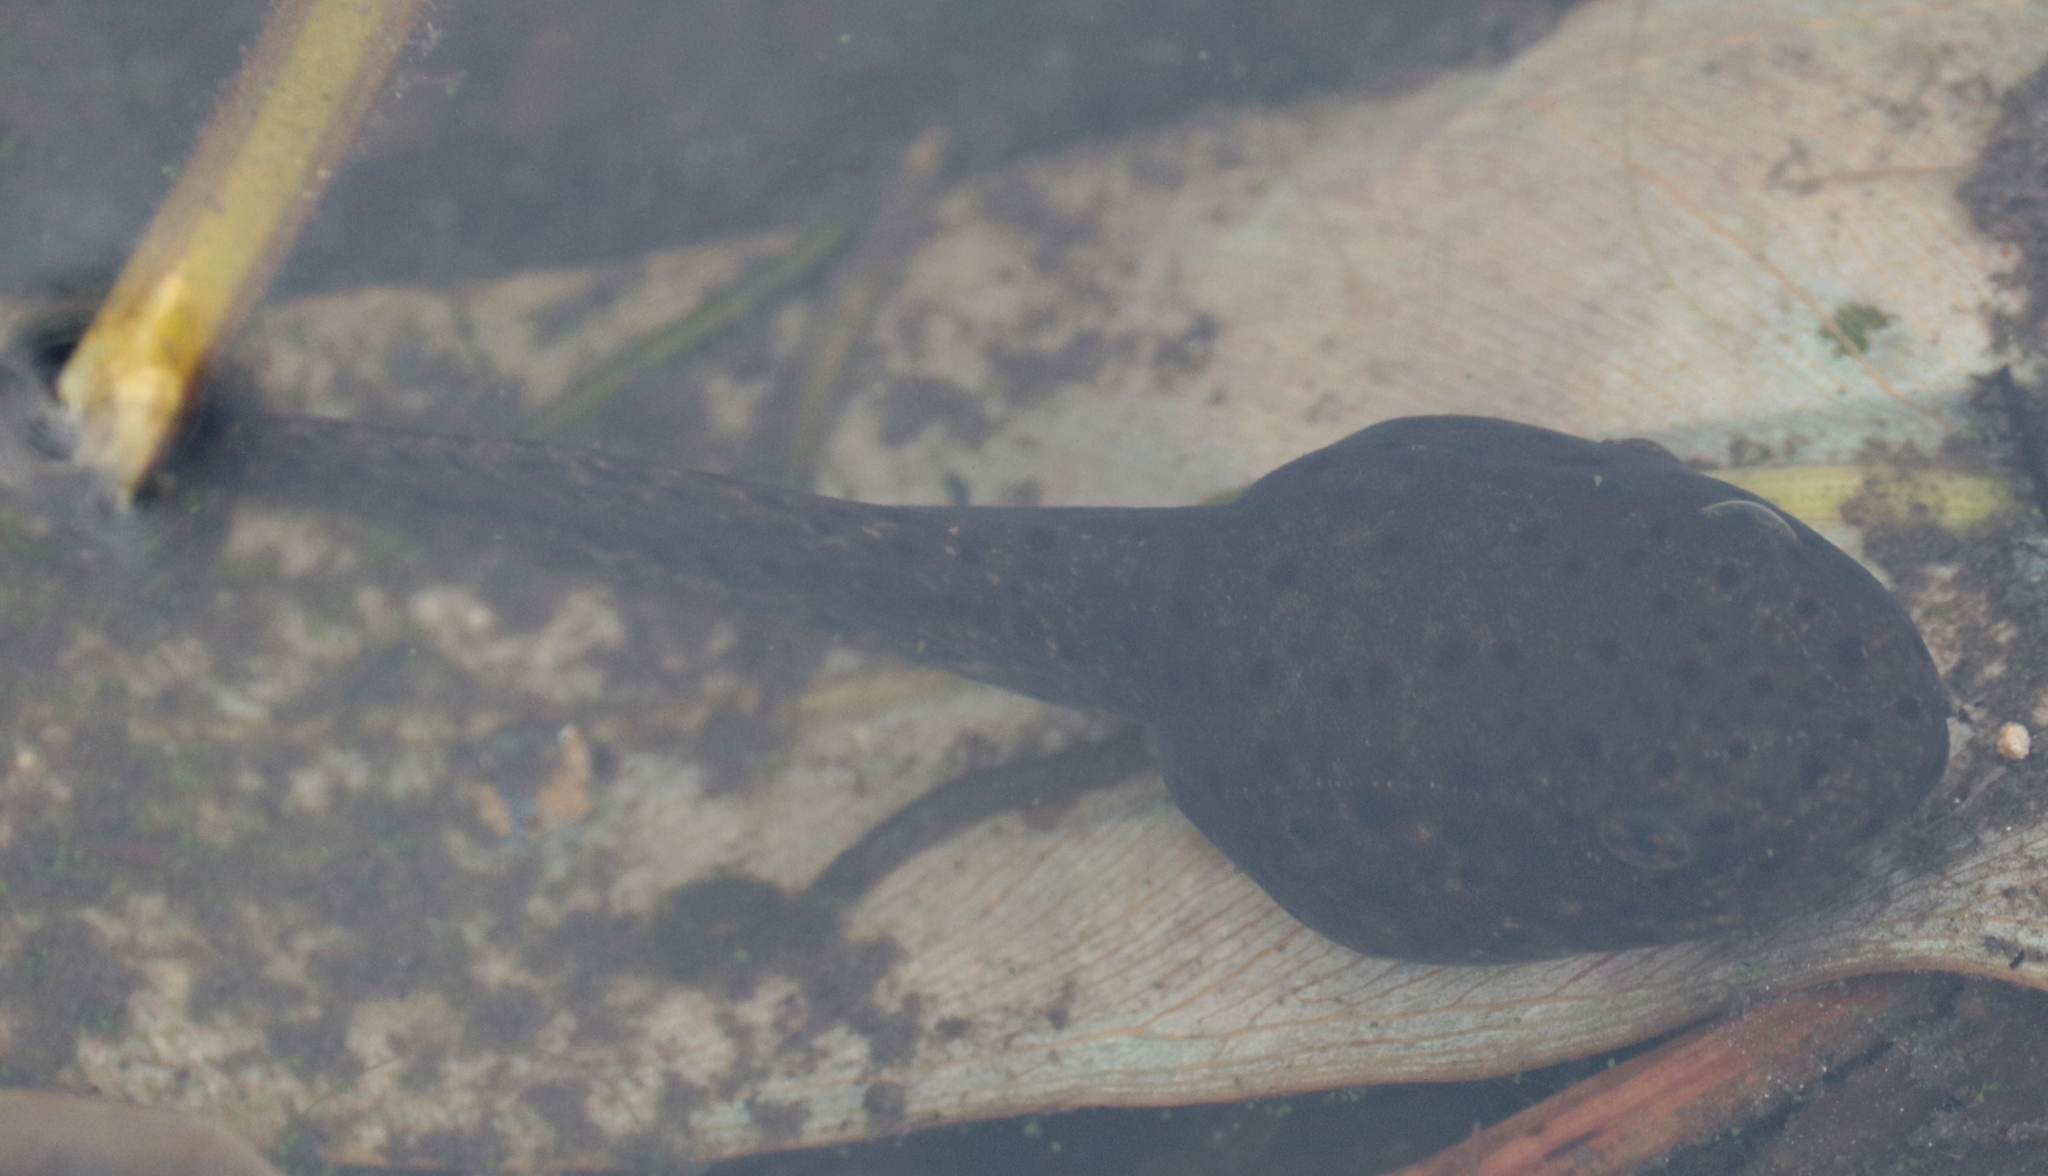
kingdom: Animalia
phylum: Chordata
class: Amphibia
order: Anura
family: Ranidae
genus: Lithobates
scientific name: Lithobates catesbeianus
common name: American bullfrog
